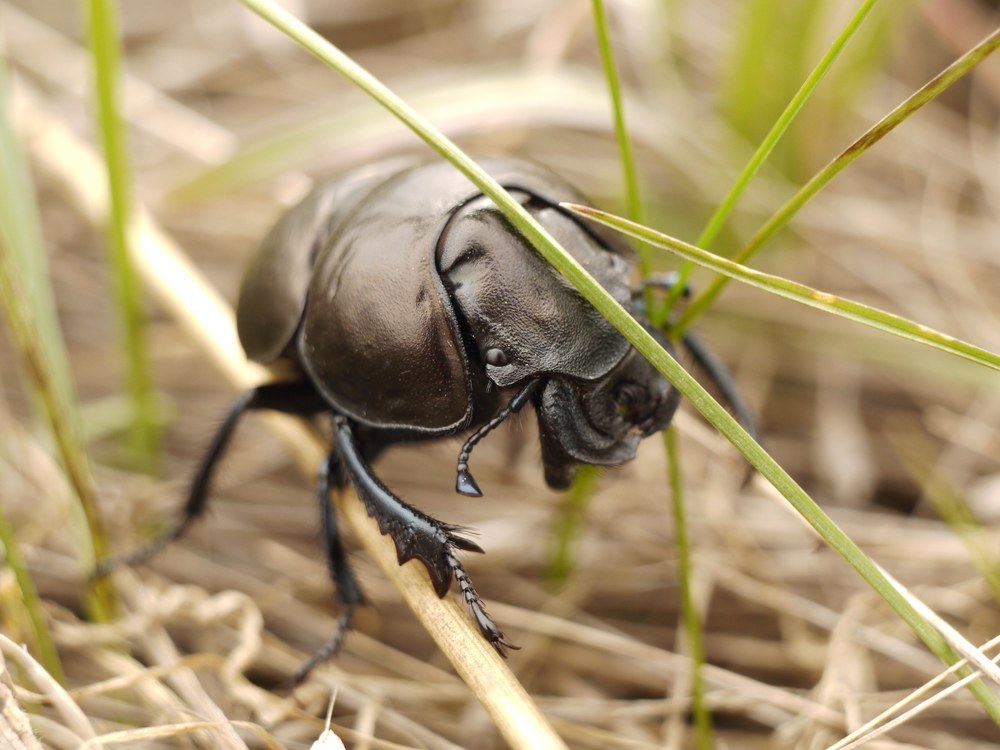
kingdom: Animalia
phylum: Arthropoda
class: Insecta
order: Coleoptera
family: Geotrupidae
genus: Lethrus
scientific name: Lethrus apterus
